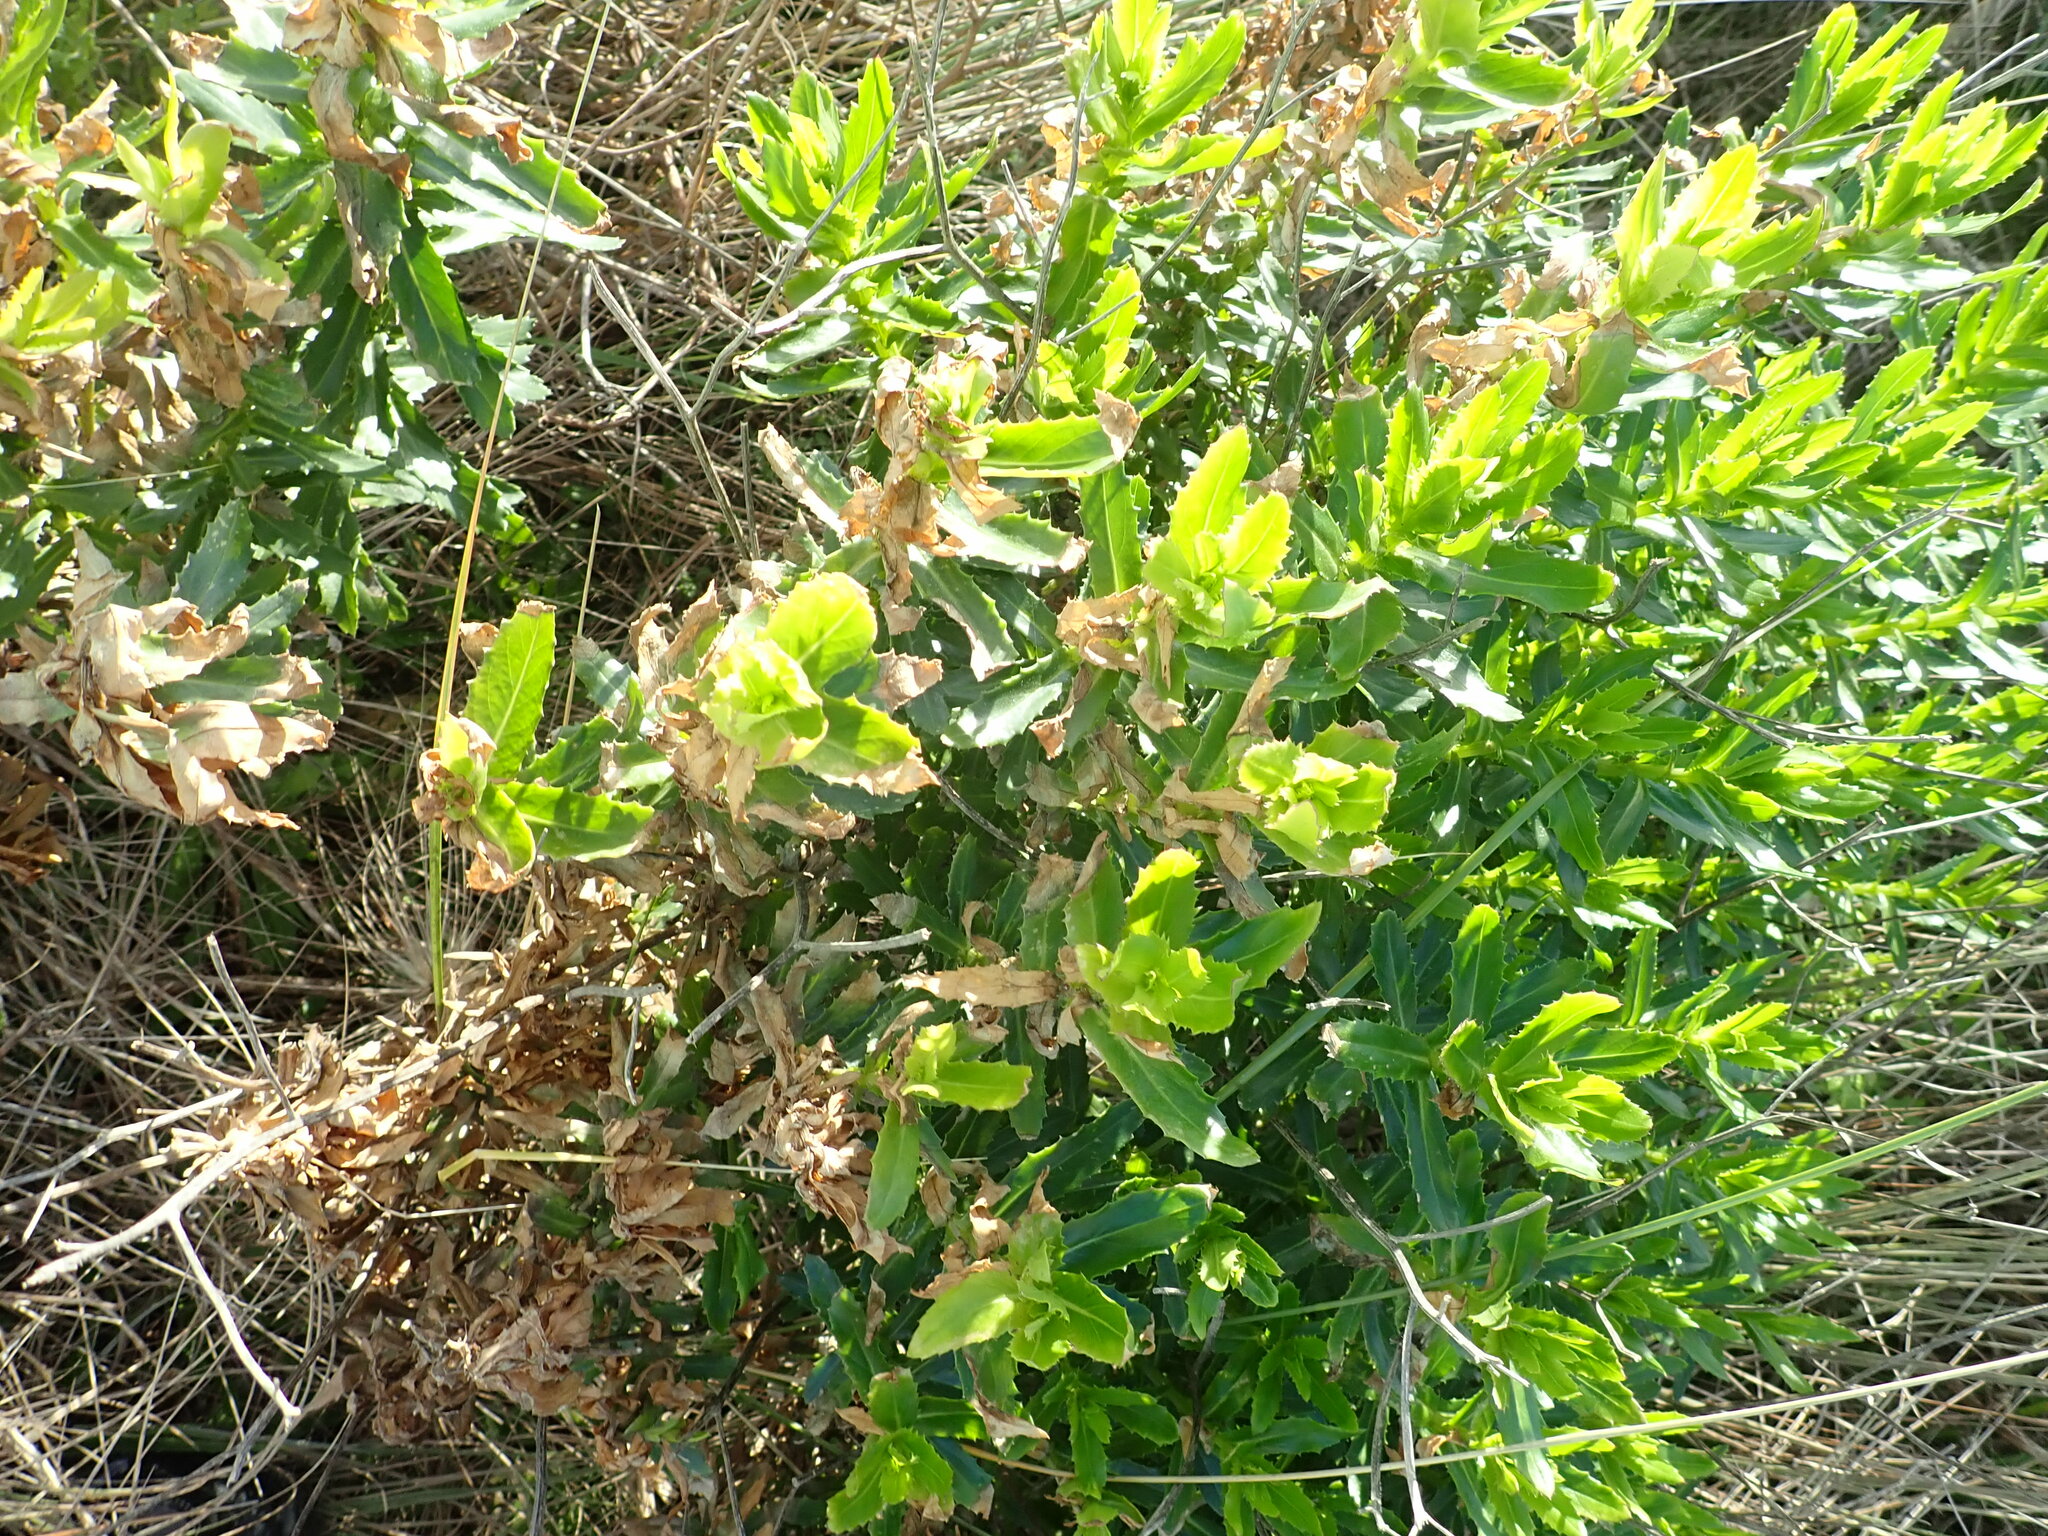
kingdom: Plantae
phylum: Tracheophyta
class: Magnoliopsida
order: Asterales
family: Asteraceae
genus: Senecio
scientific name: Senecio glastifolius
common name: Woad-leaved ragwort
